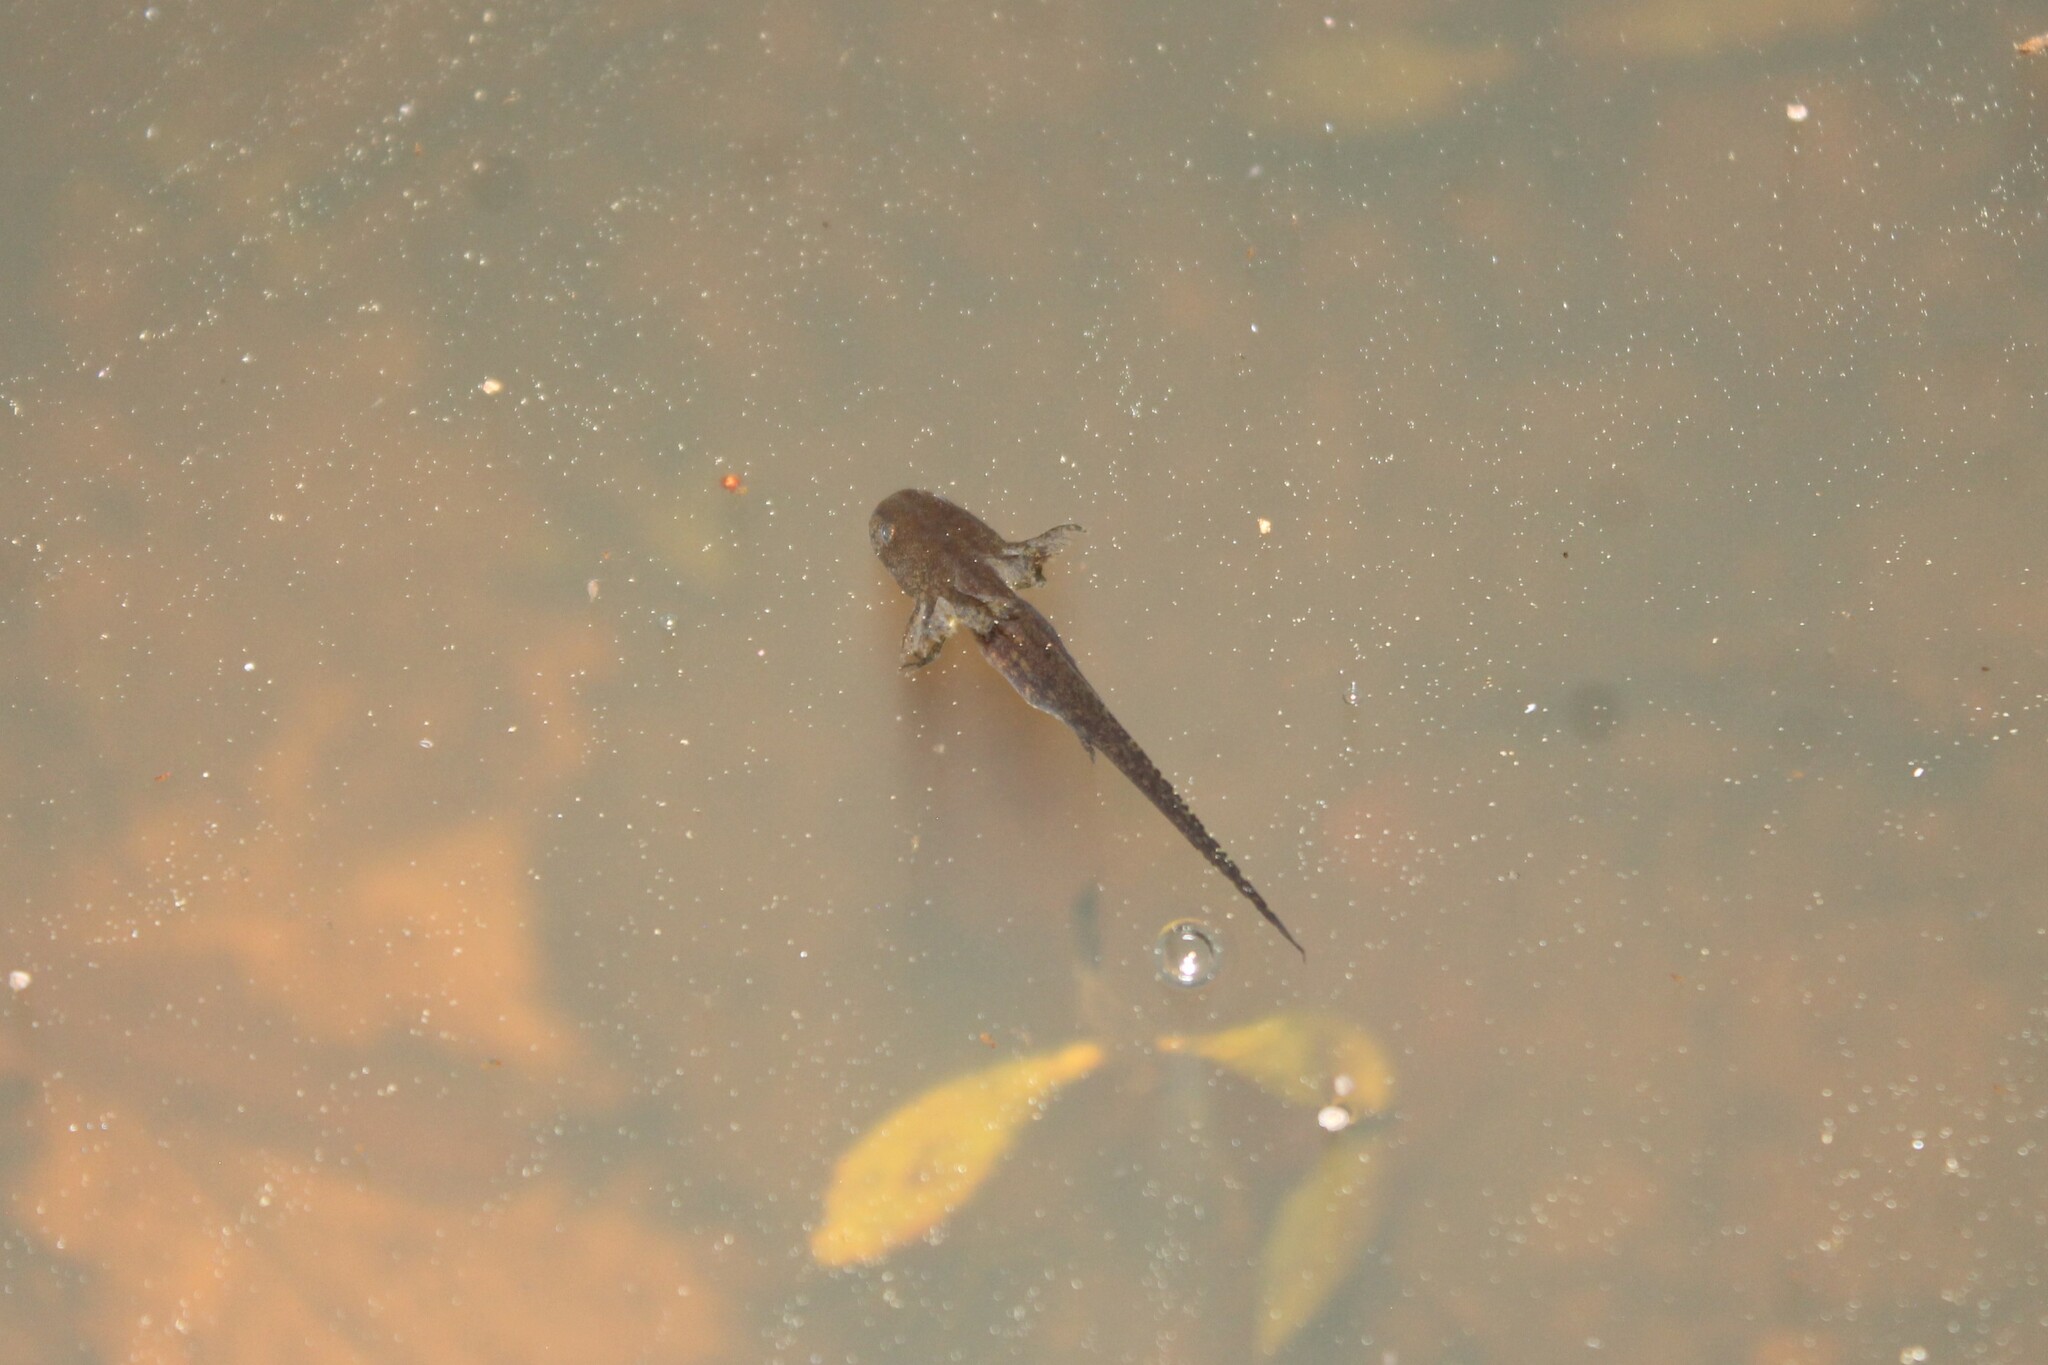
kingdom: Animalia
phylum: Chordata
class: Amphibia
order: Caudata
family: Ambystomatidae
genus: Ambystoma
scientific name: Ambystoma opacum
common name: Marbled salamander
